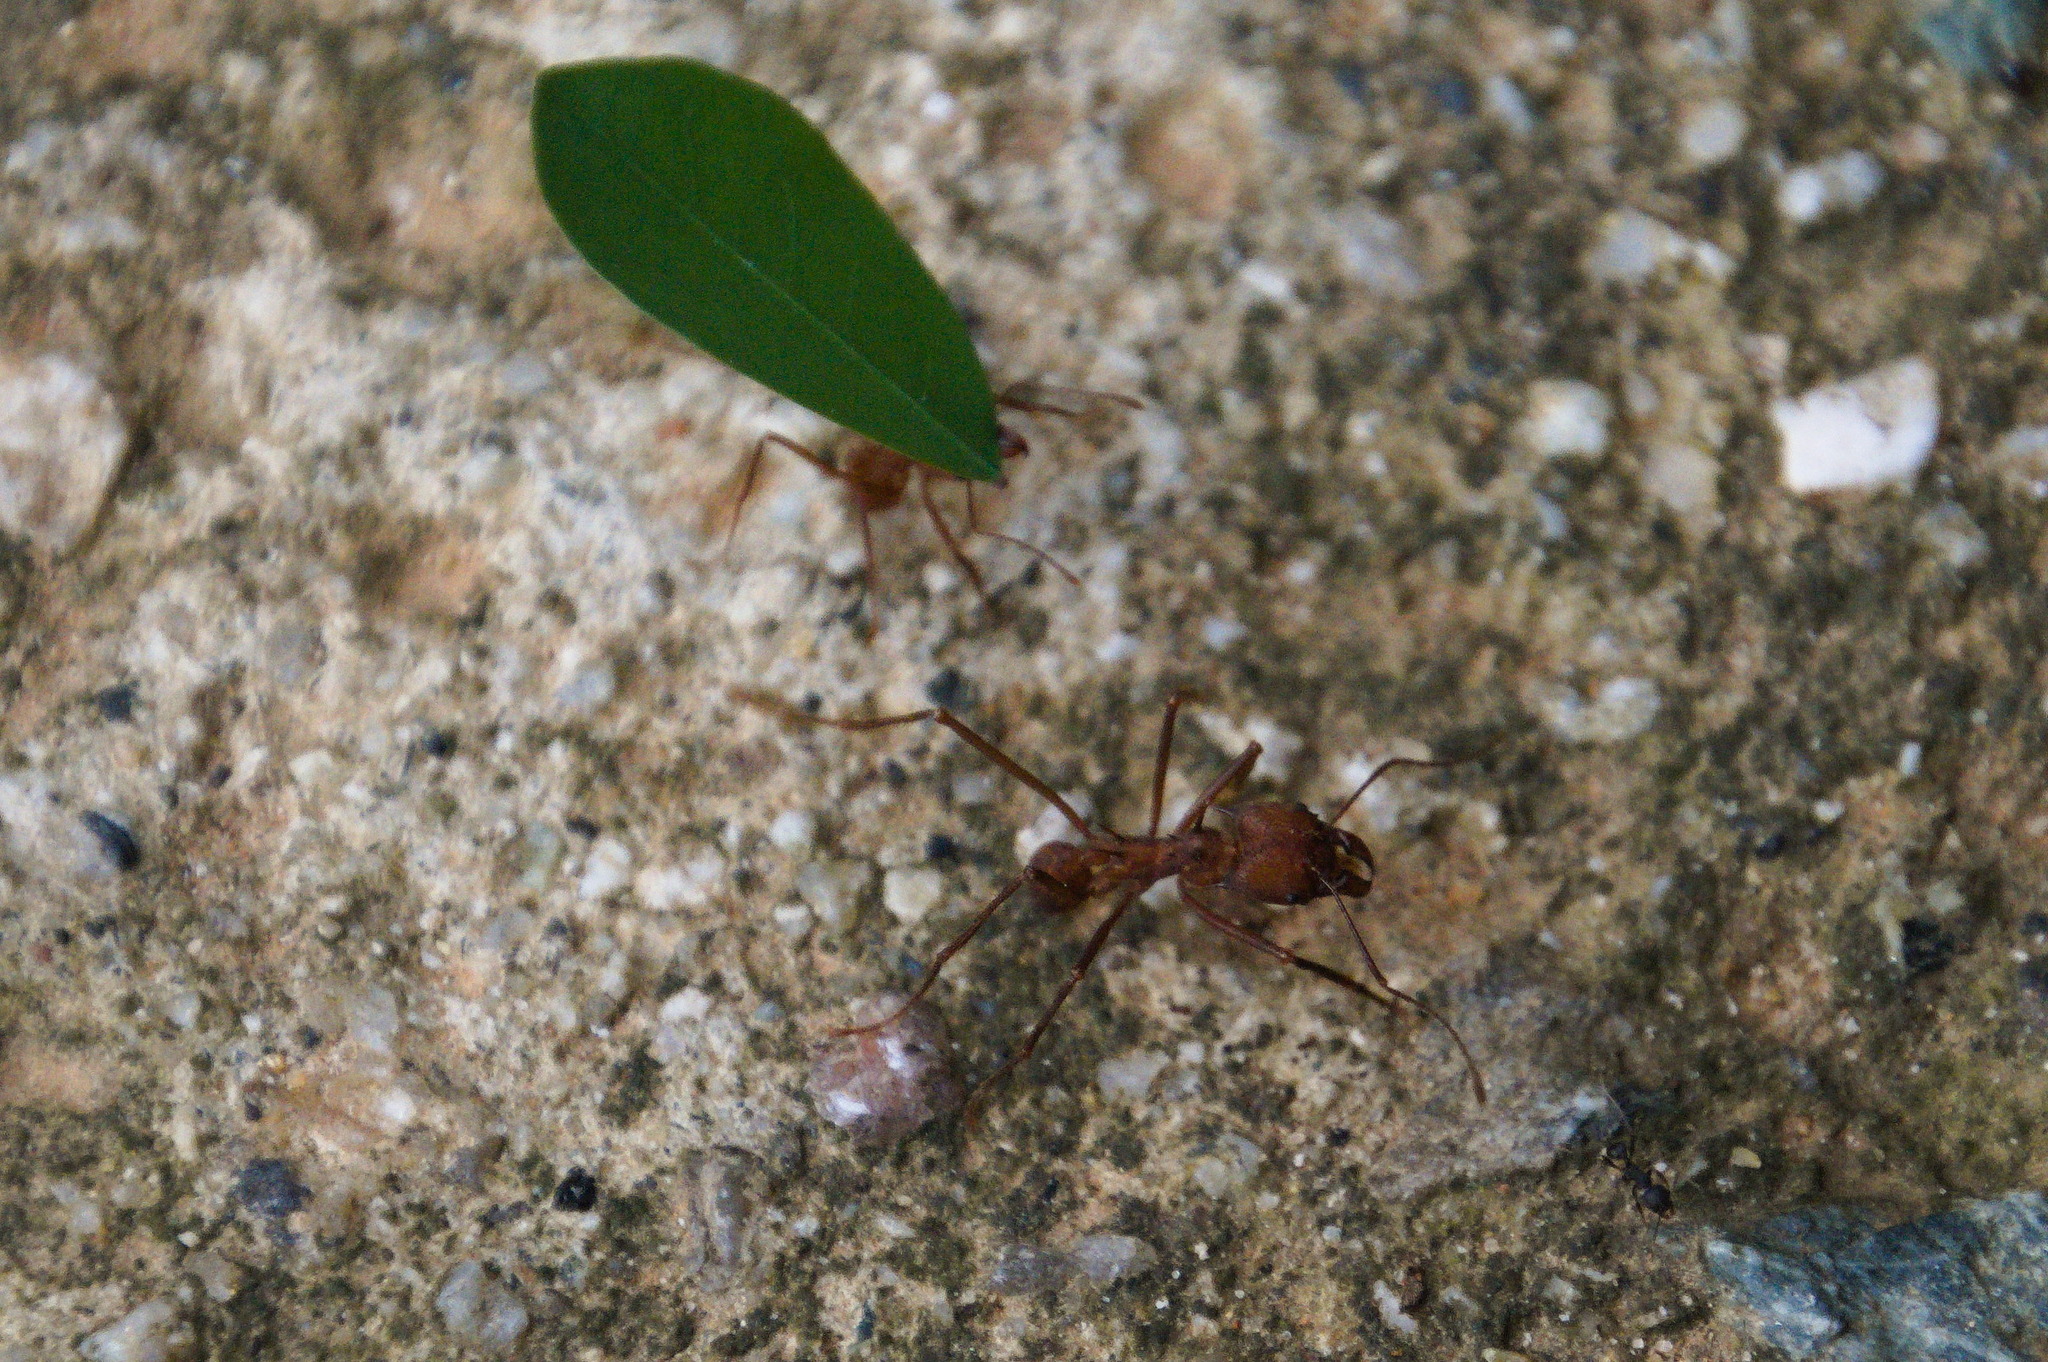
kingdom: Animalia
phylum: Arthropoda
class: Insecta
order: Hymenoptera
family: Formicidae
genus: Atta
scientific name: Atta colombica
